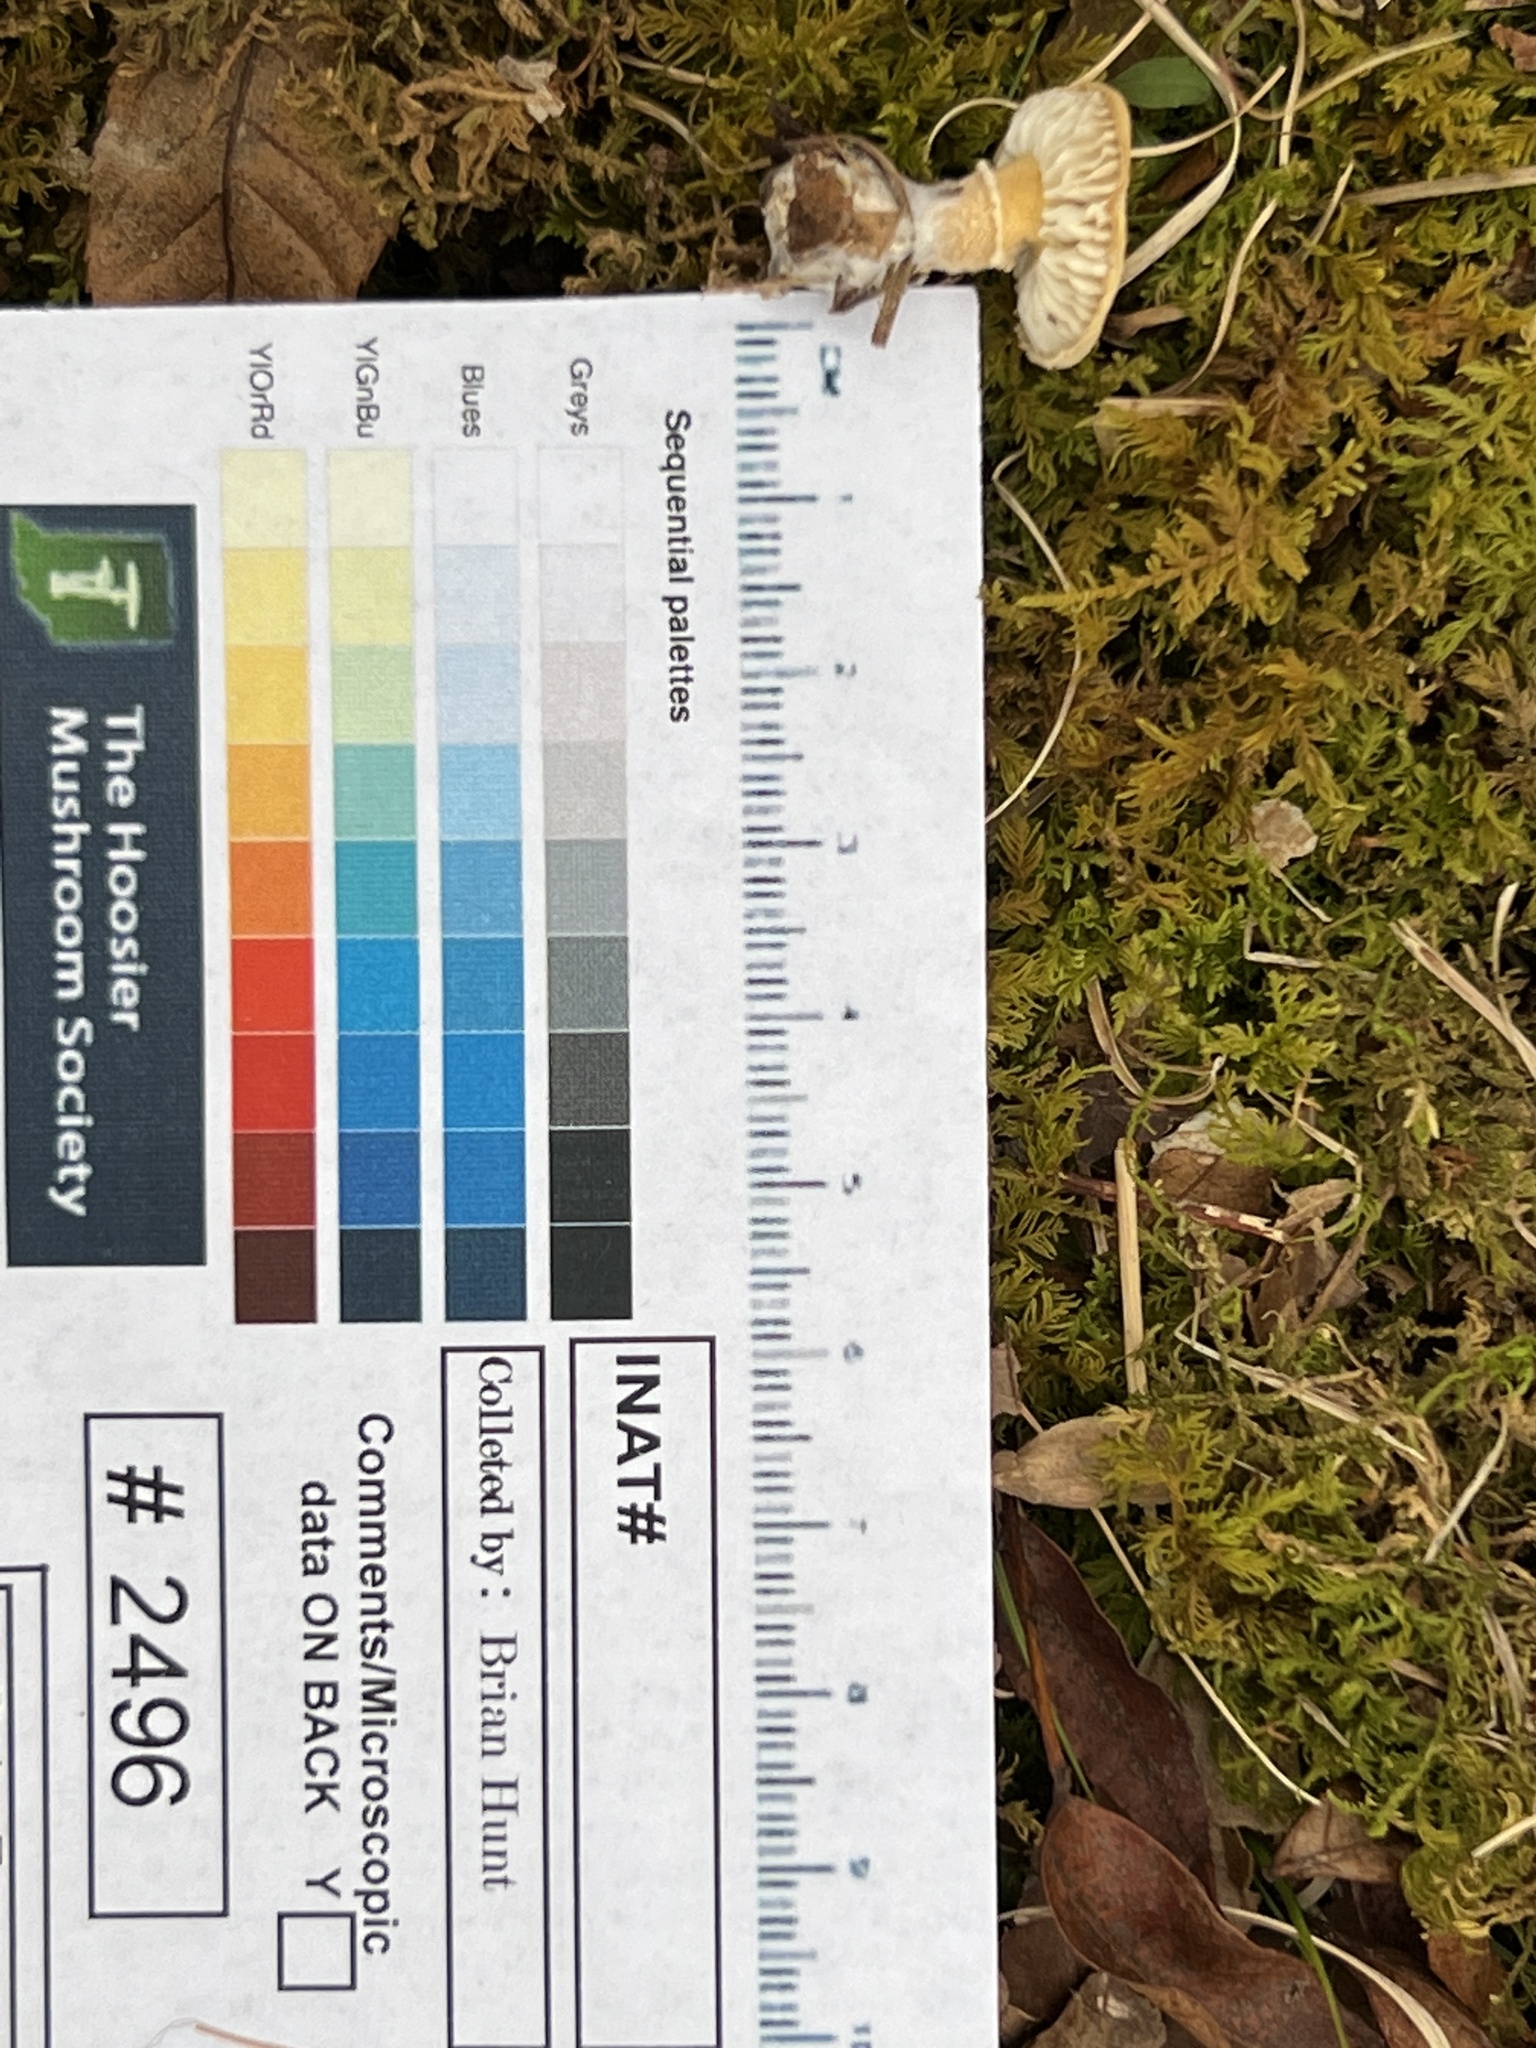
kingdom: Fungi
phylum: Basidiomycota
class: Agaricomycetes
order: Agaricales
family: Tricholomataceae
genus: Cystoderma
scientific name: Cystoderma amianthinum
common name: Earthy powdercap
